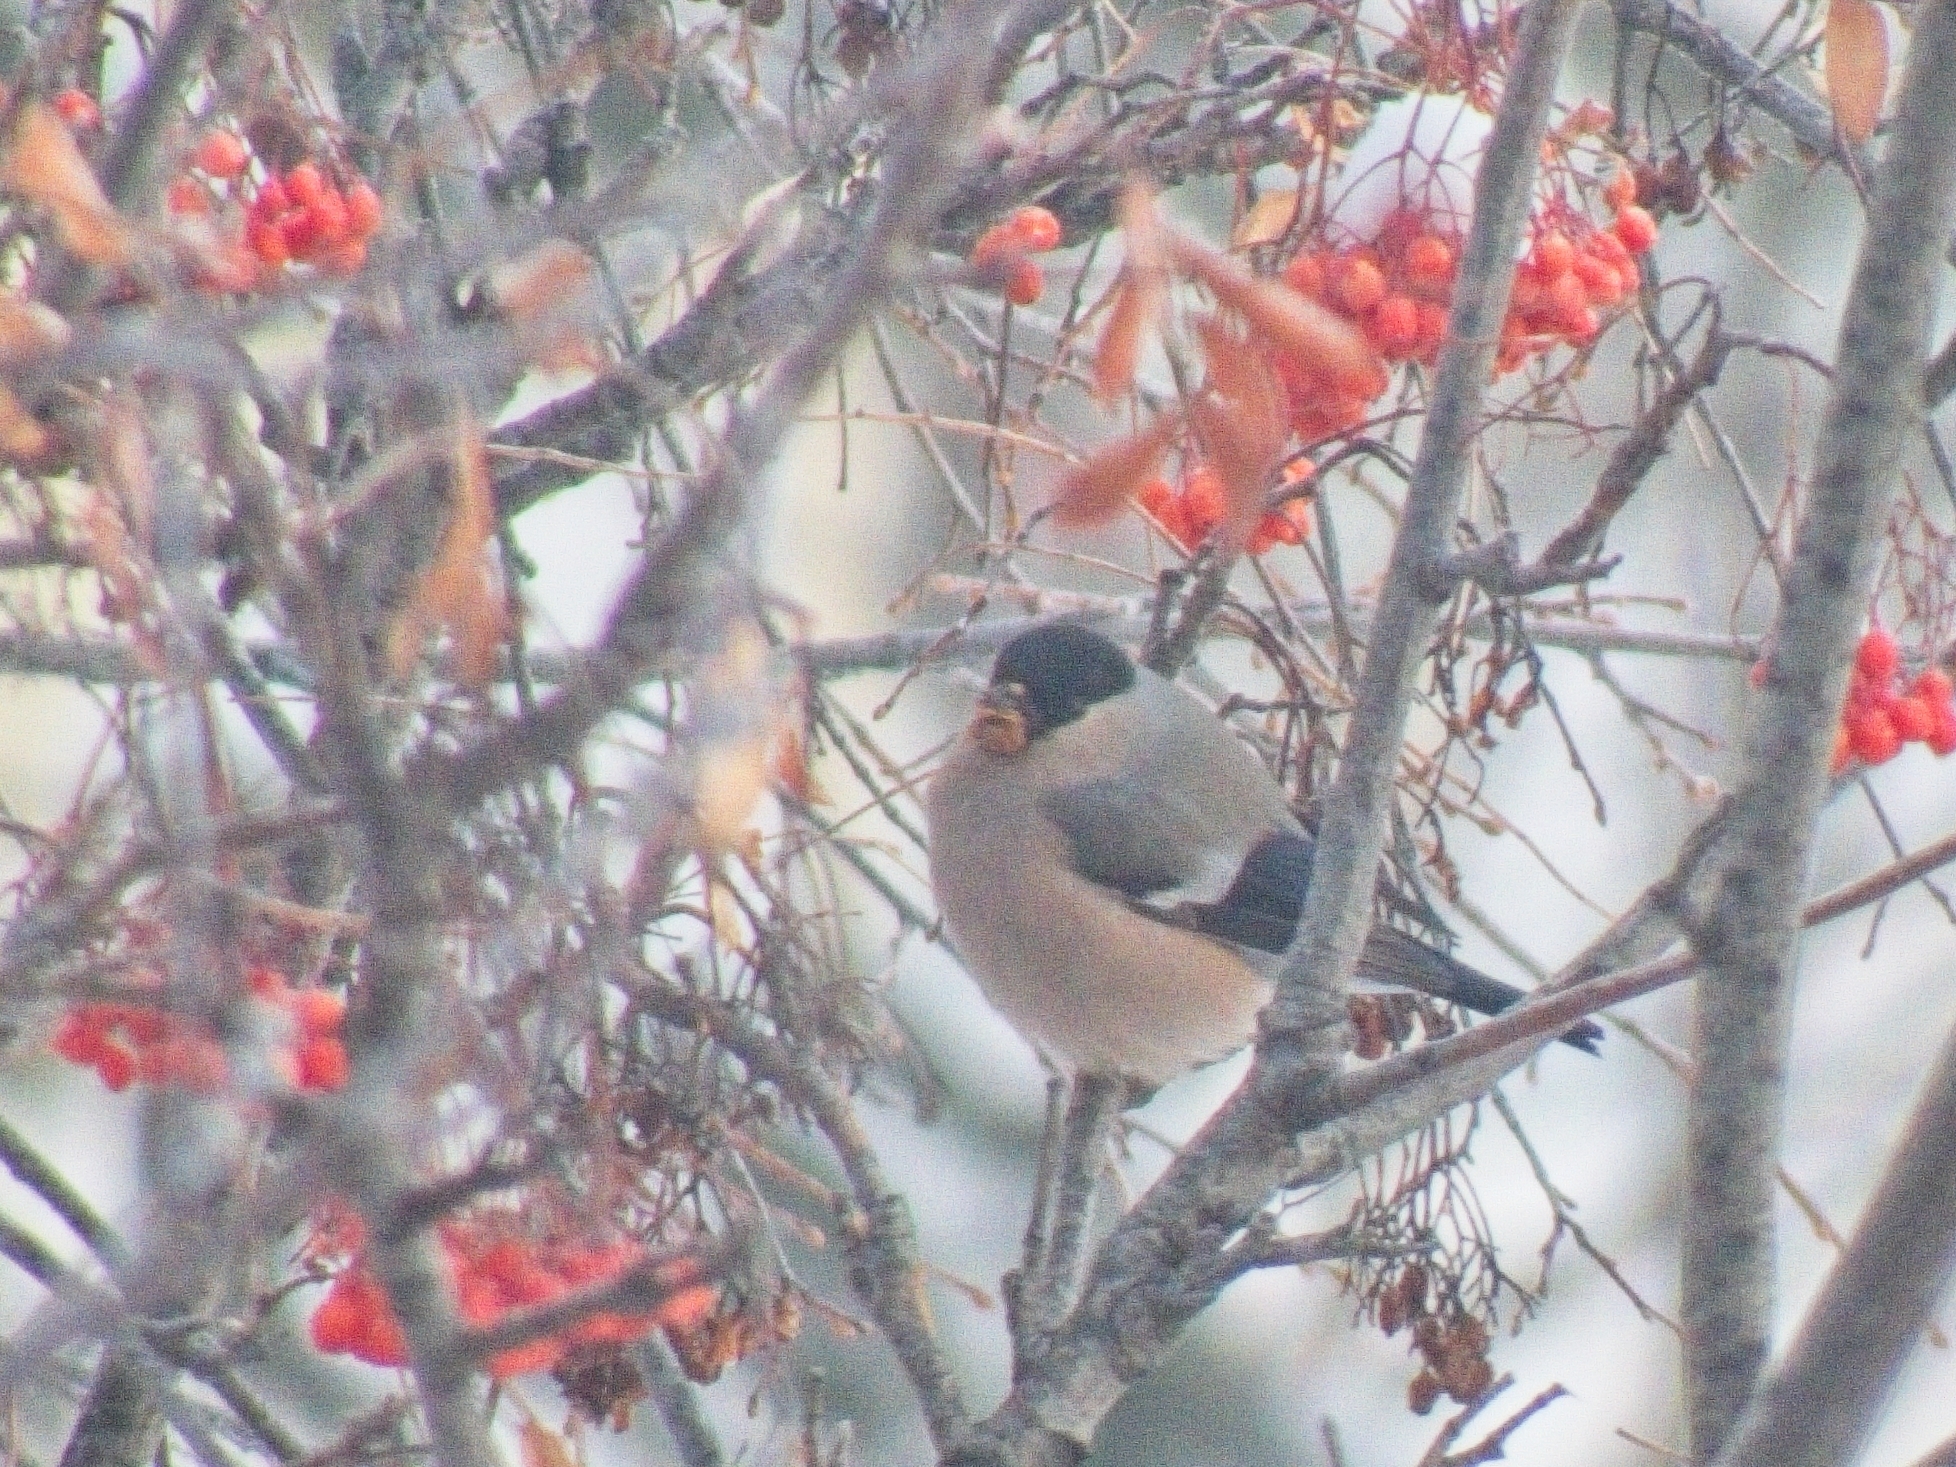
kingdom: Animalia
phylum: Chordata
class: Aves
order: Passeriformes
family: Fringillidae
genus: Pyrrhula
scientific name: Pyrrhula pyrrhula
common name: Eurasian bullfinch
